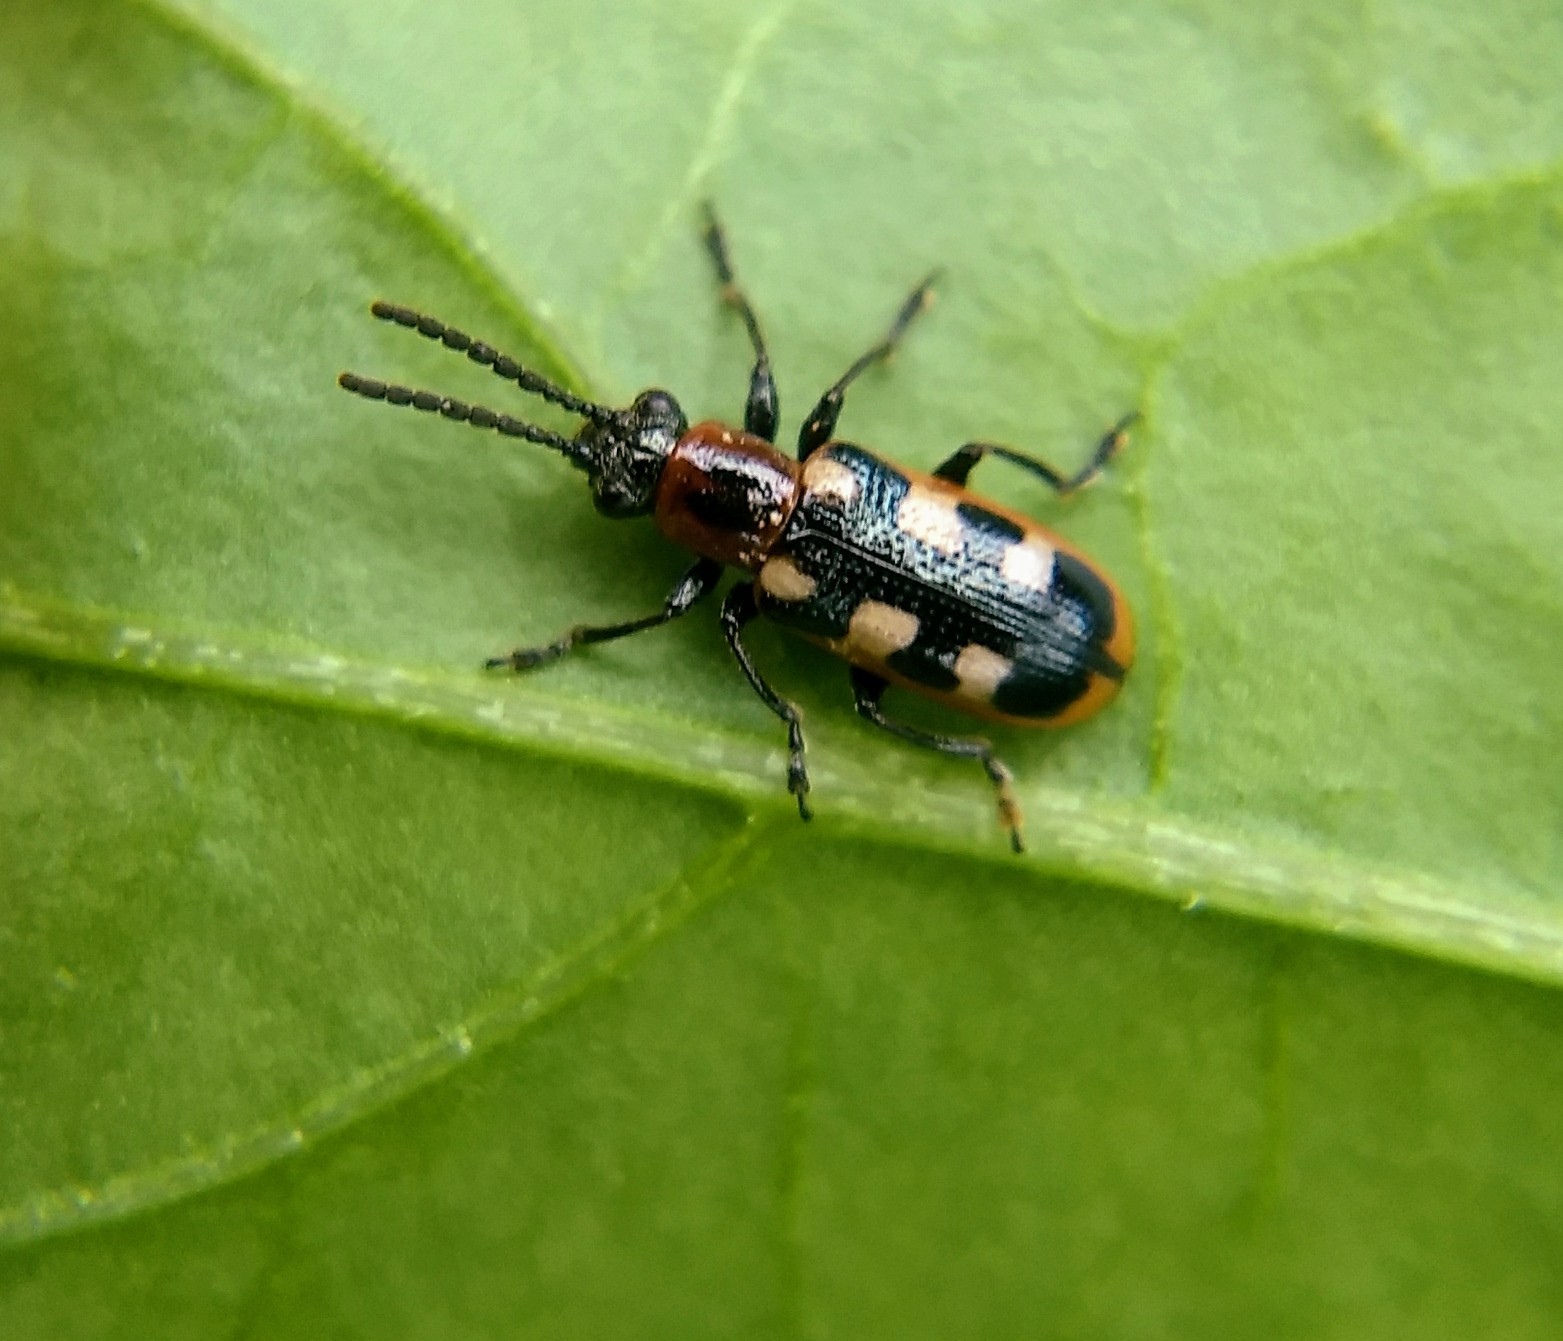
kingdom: Animalia
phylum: Arthropoda
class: Insecta
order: Coleoptera
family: Chrysomelidae
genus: Crioceris
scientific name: Crioceris asparagi
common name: Asparagus beetle
